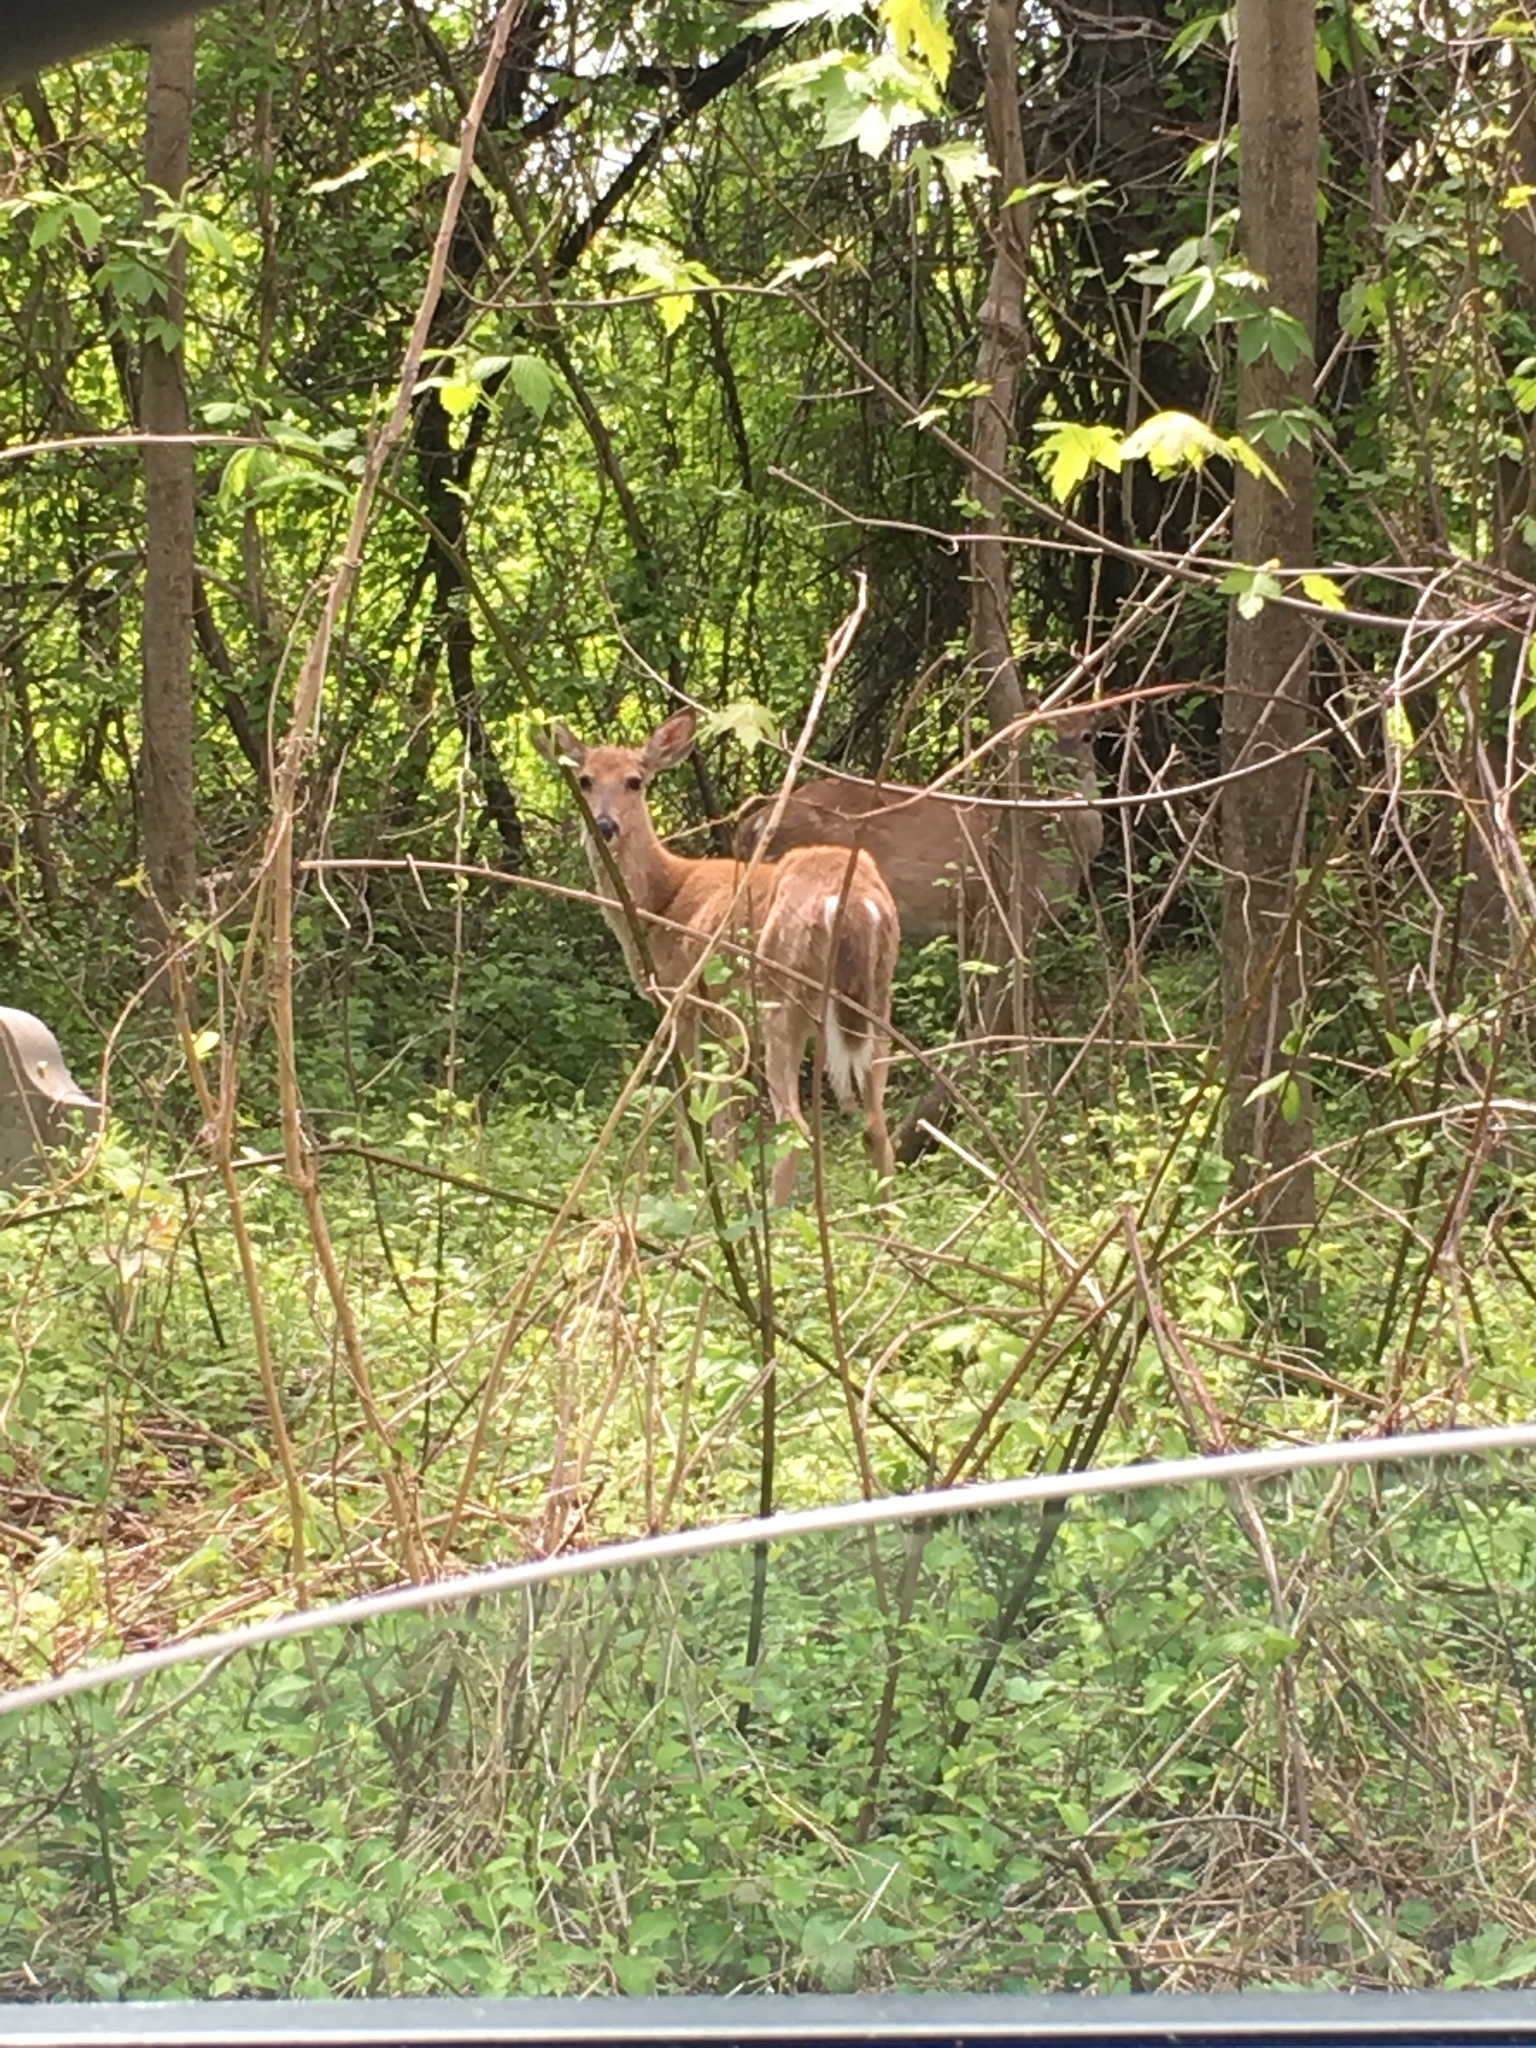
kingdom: Animalia
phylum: Chordata
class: Mammalia
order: Artiodactyla
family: Cervidae
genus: Odocoileus
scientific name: Odocoileus virginianus
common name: White-tailed deer
